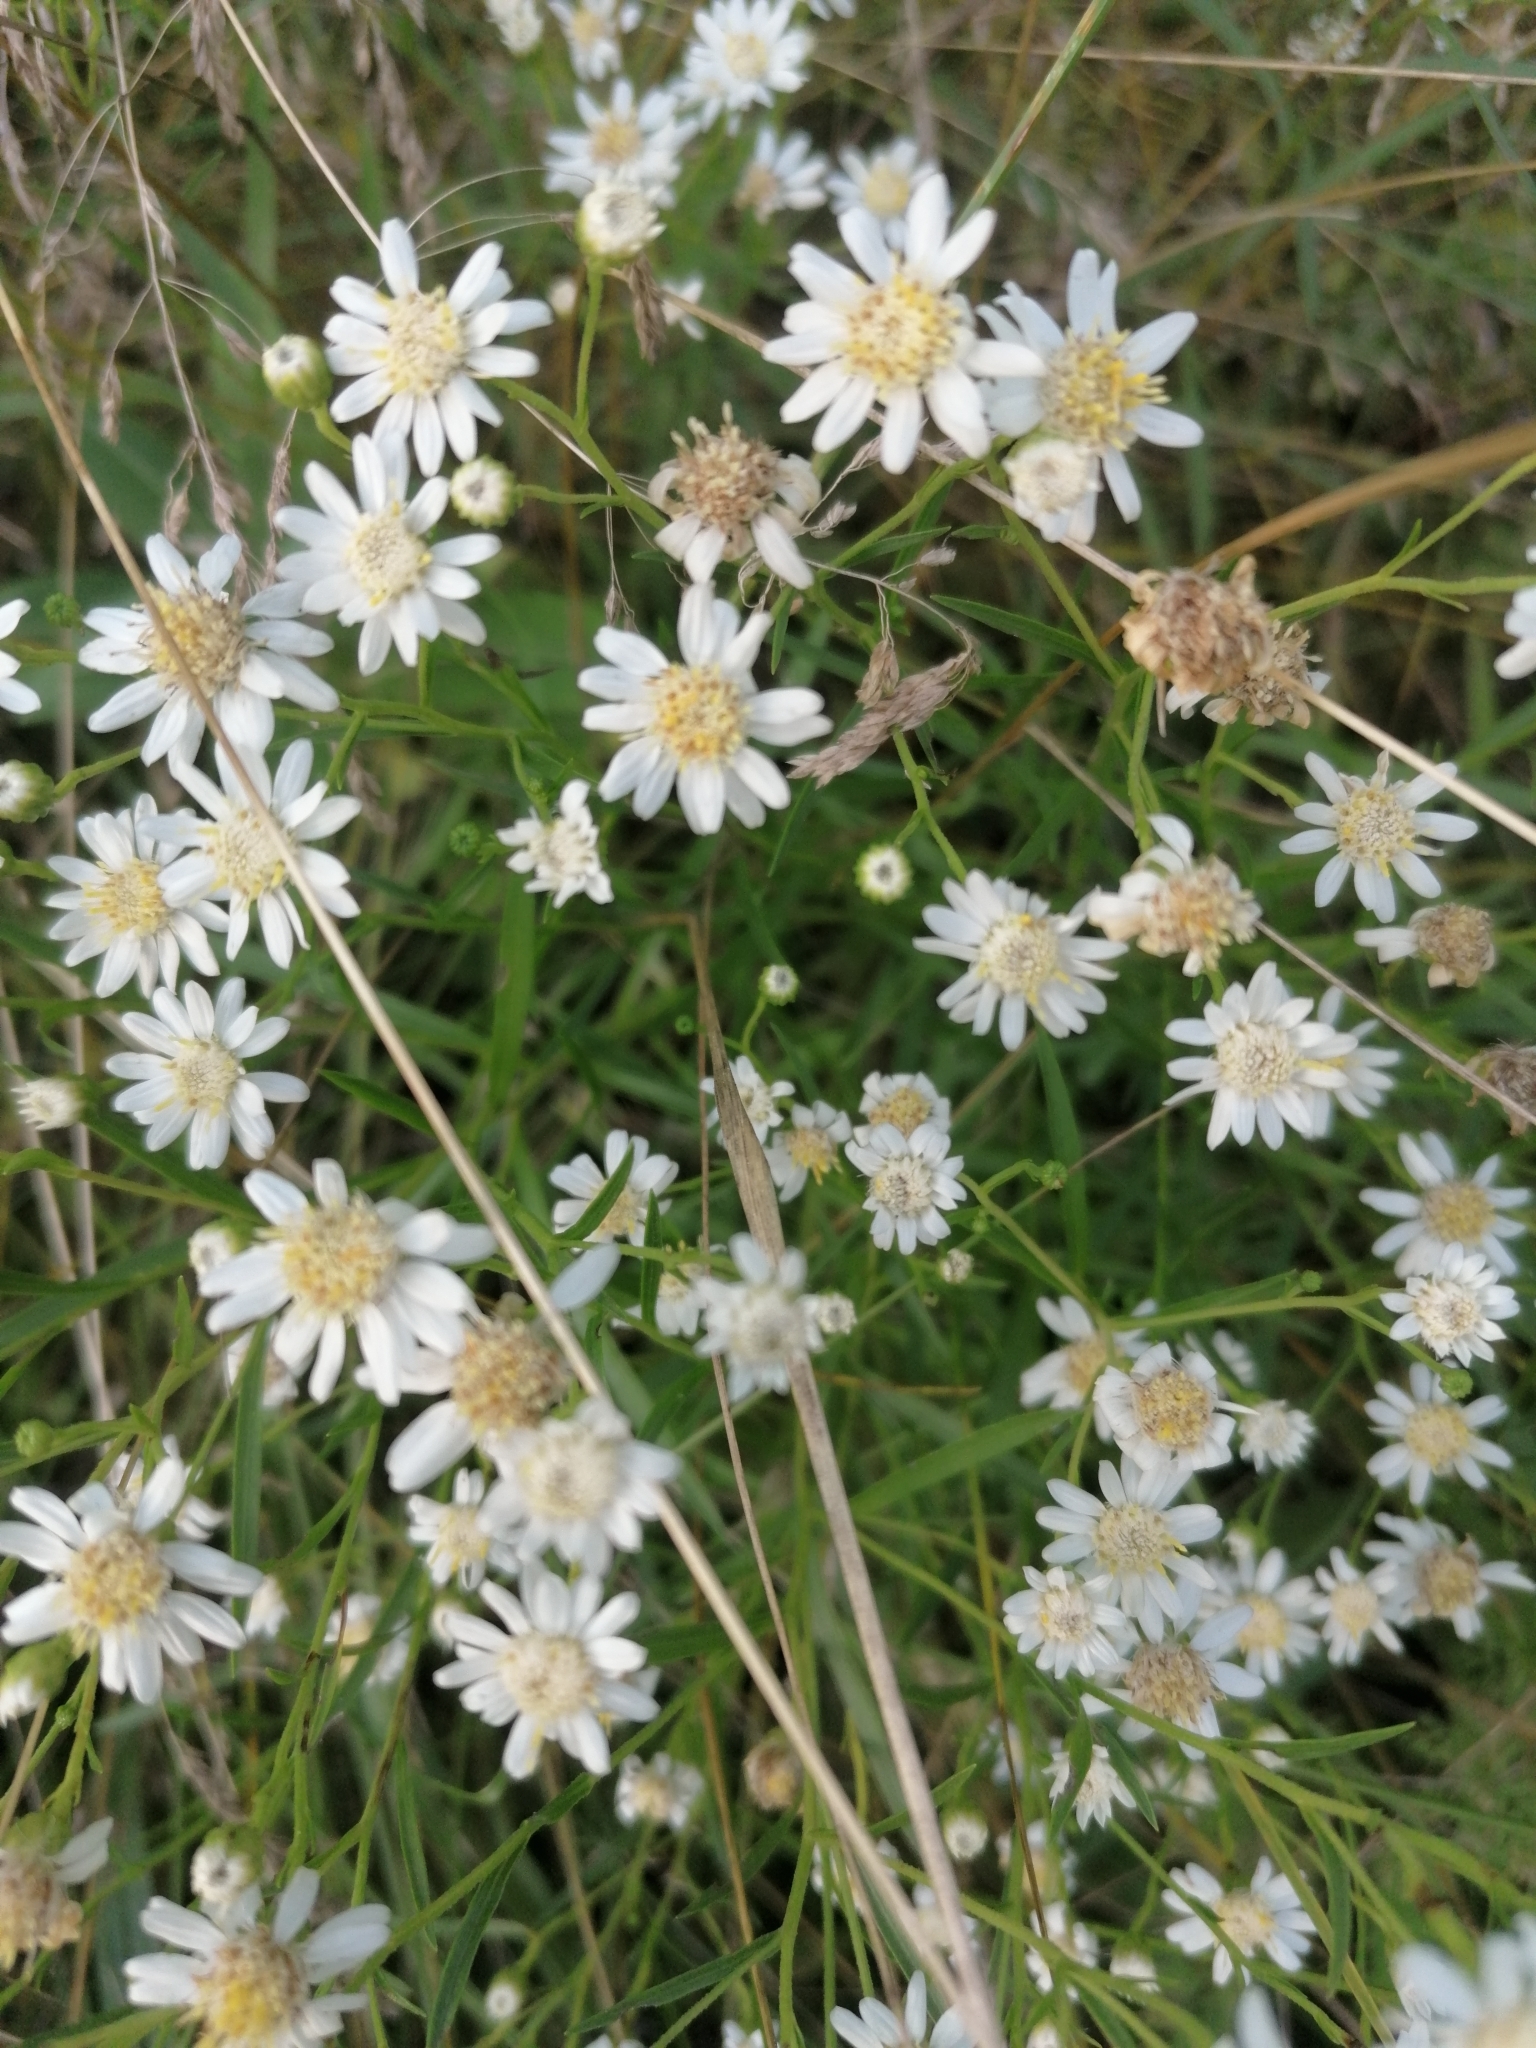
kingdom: Plantae
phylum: Tracheophyta
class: Magnoliopsida
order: Asterales
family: Asteraceae
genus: Solidago
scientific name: Solidago ptarmicoides
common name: White flat-top goldenrod
